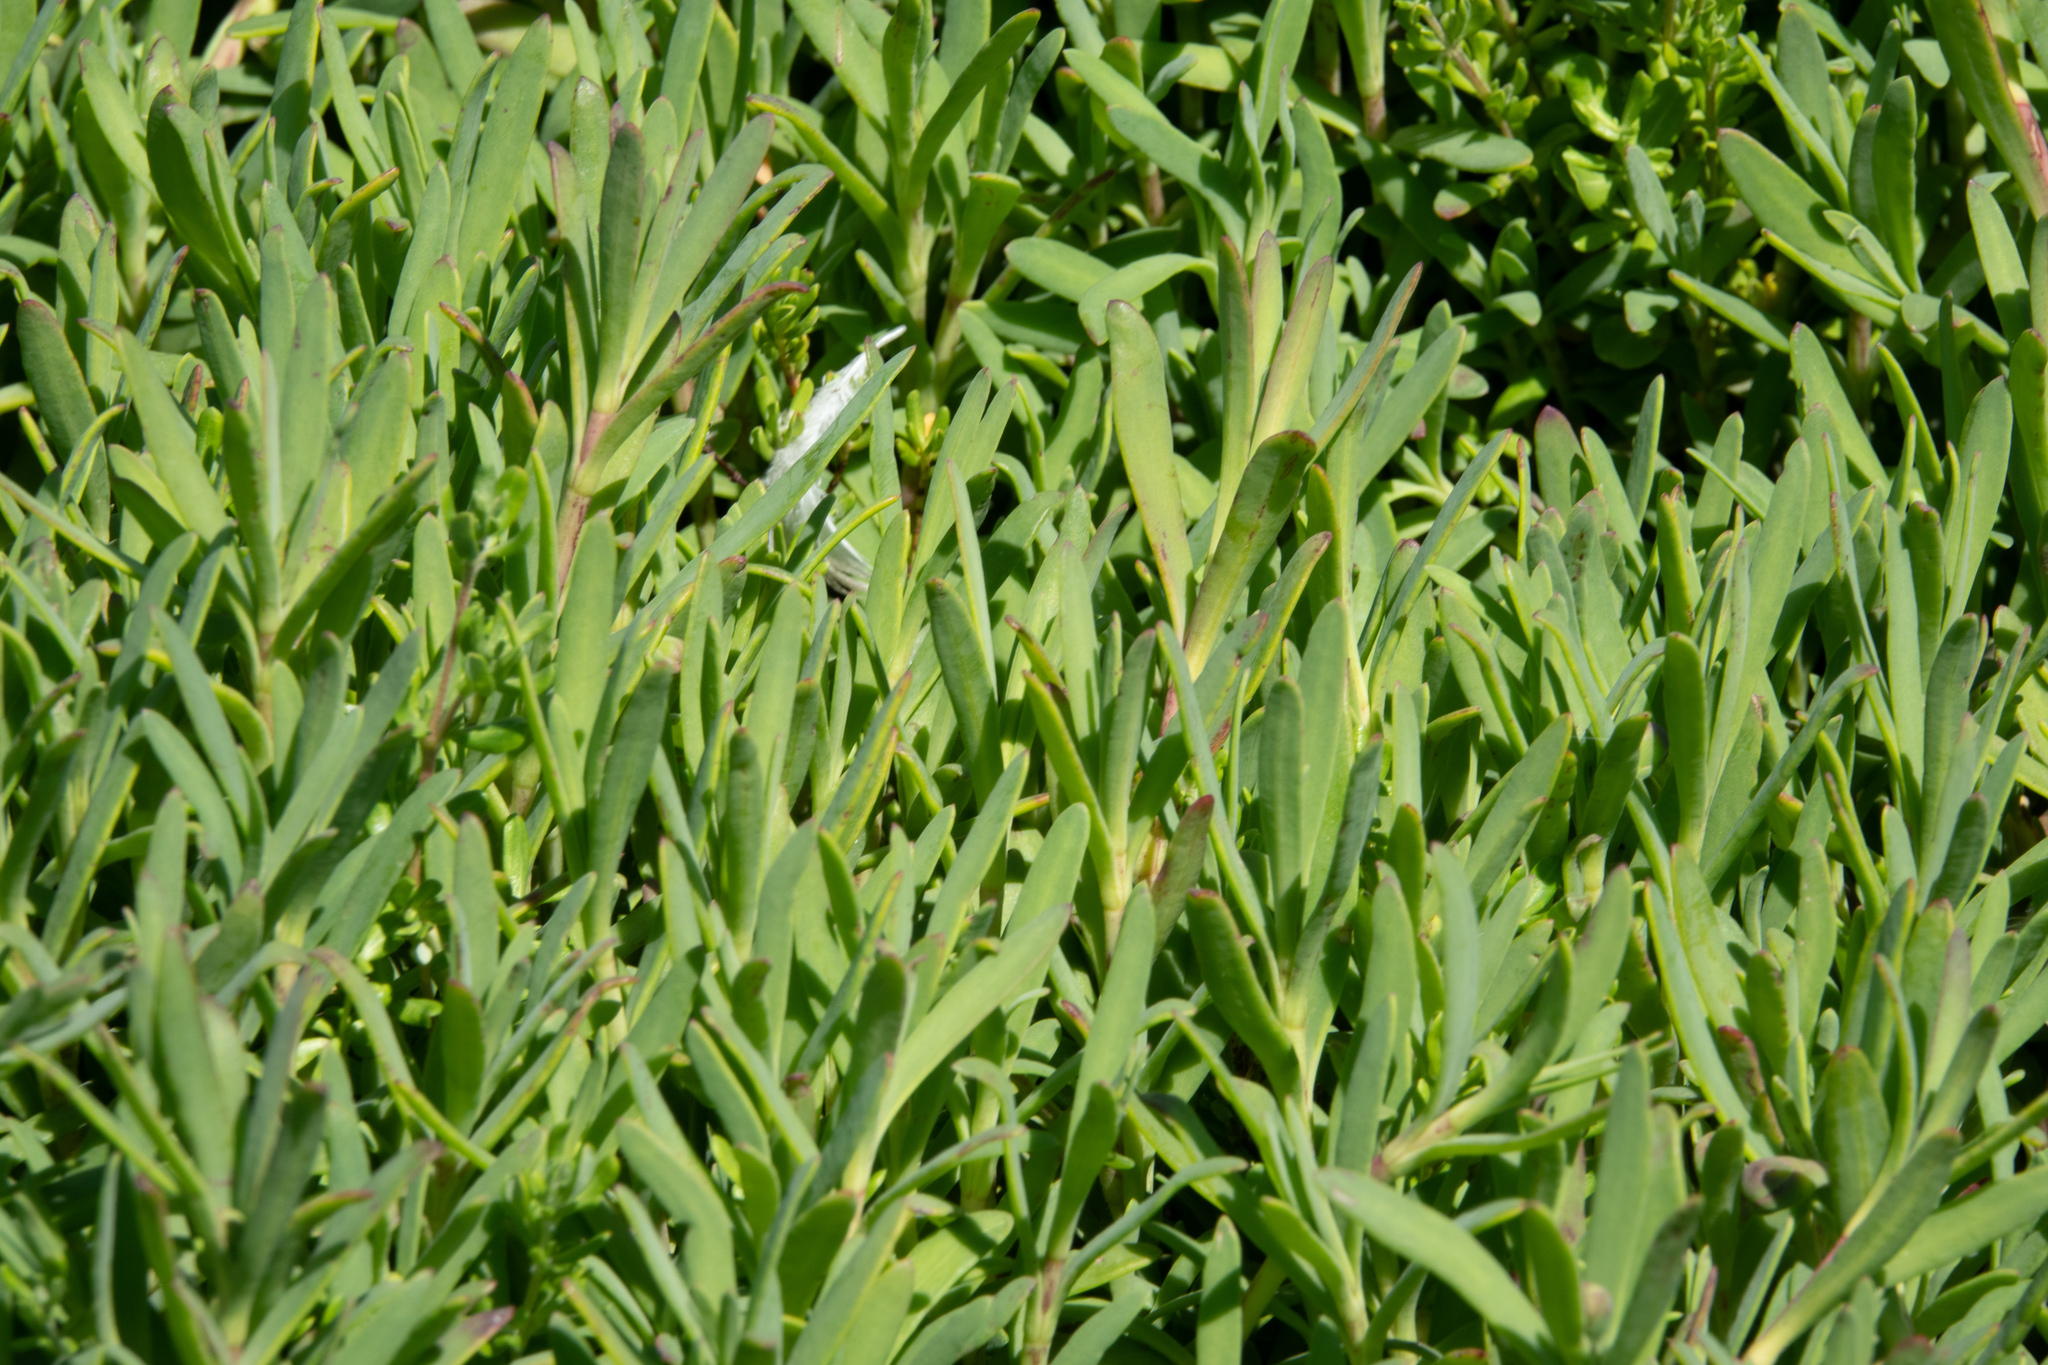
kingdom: Plantae
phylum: Tracheophyta
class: Magnoliopsida
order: Asterales
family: Asteraceae
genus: Jaumea
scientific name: Jaumea carnosa
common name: Fleshy jaumea
